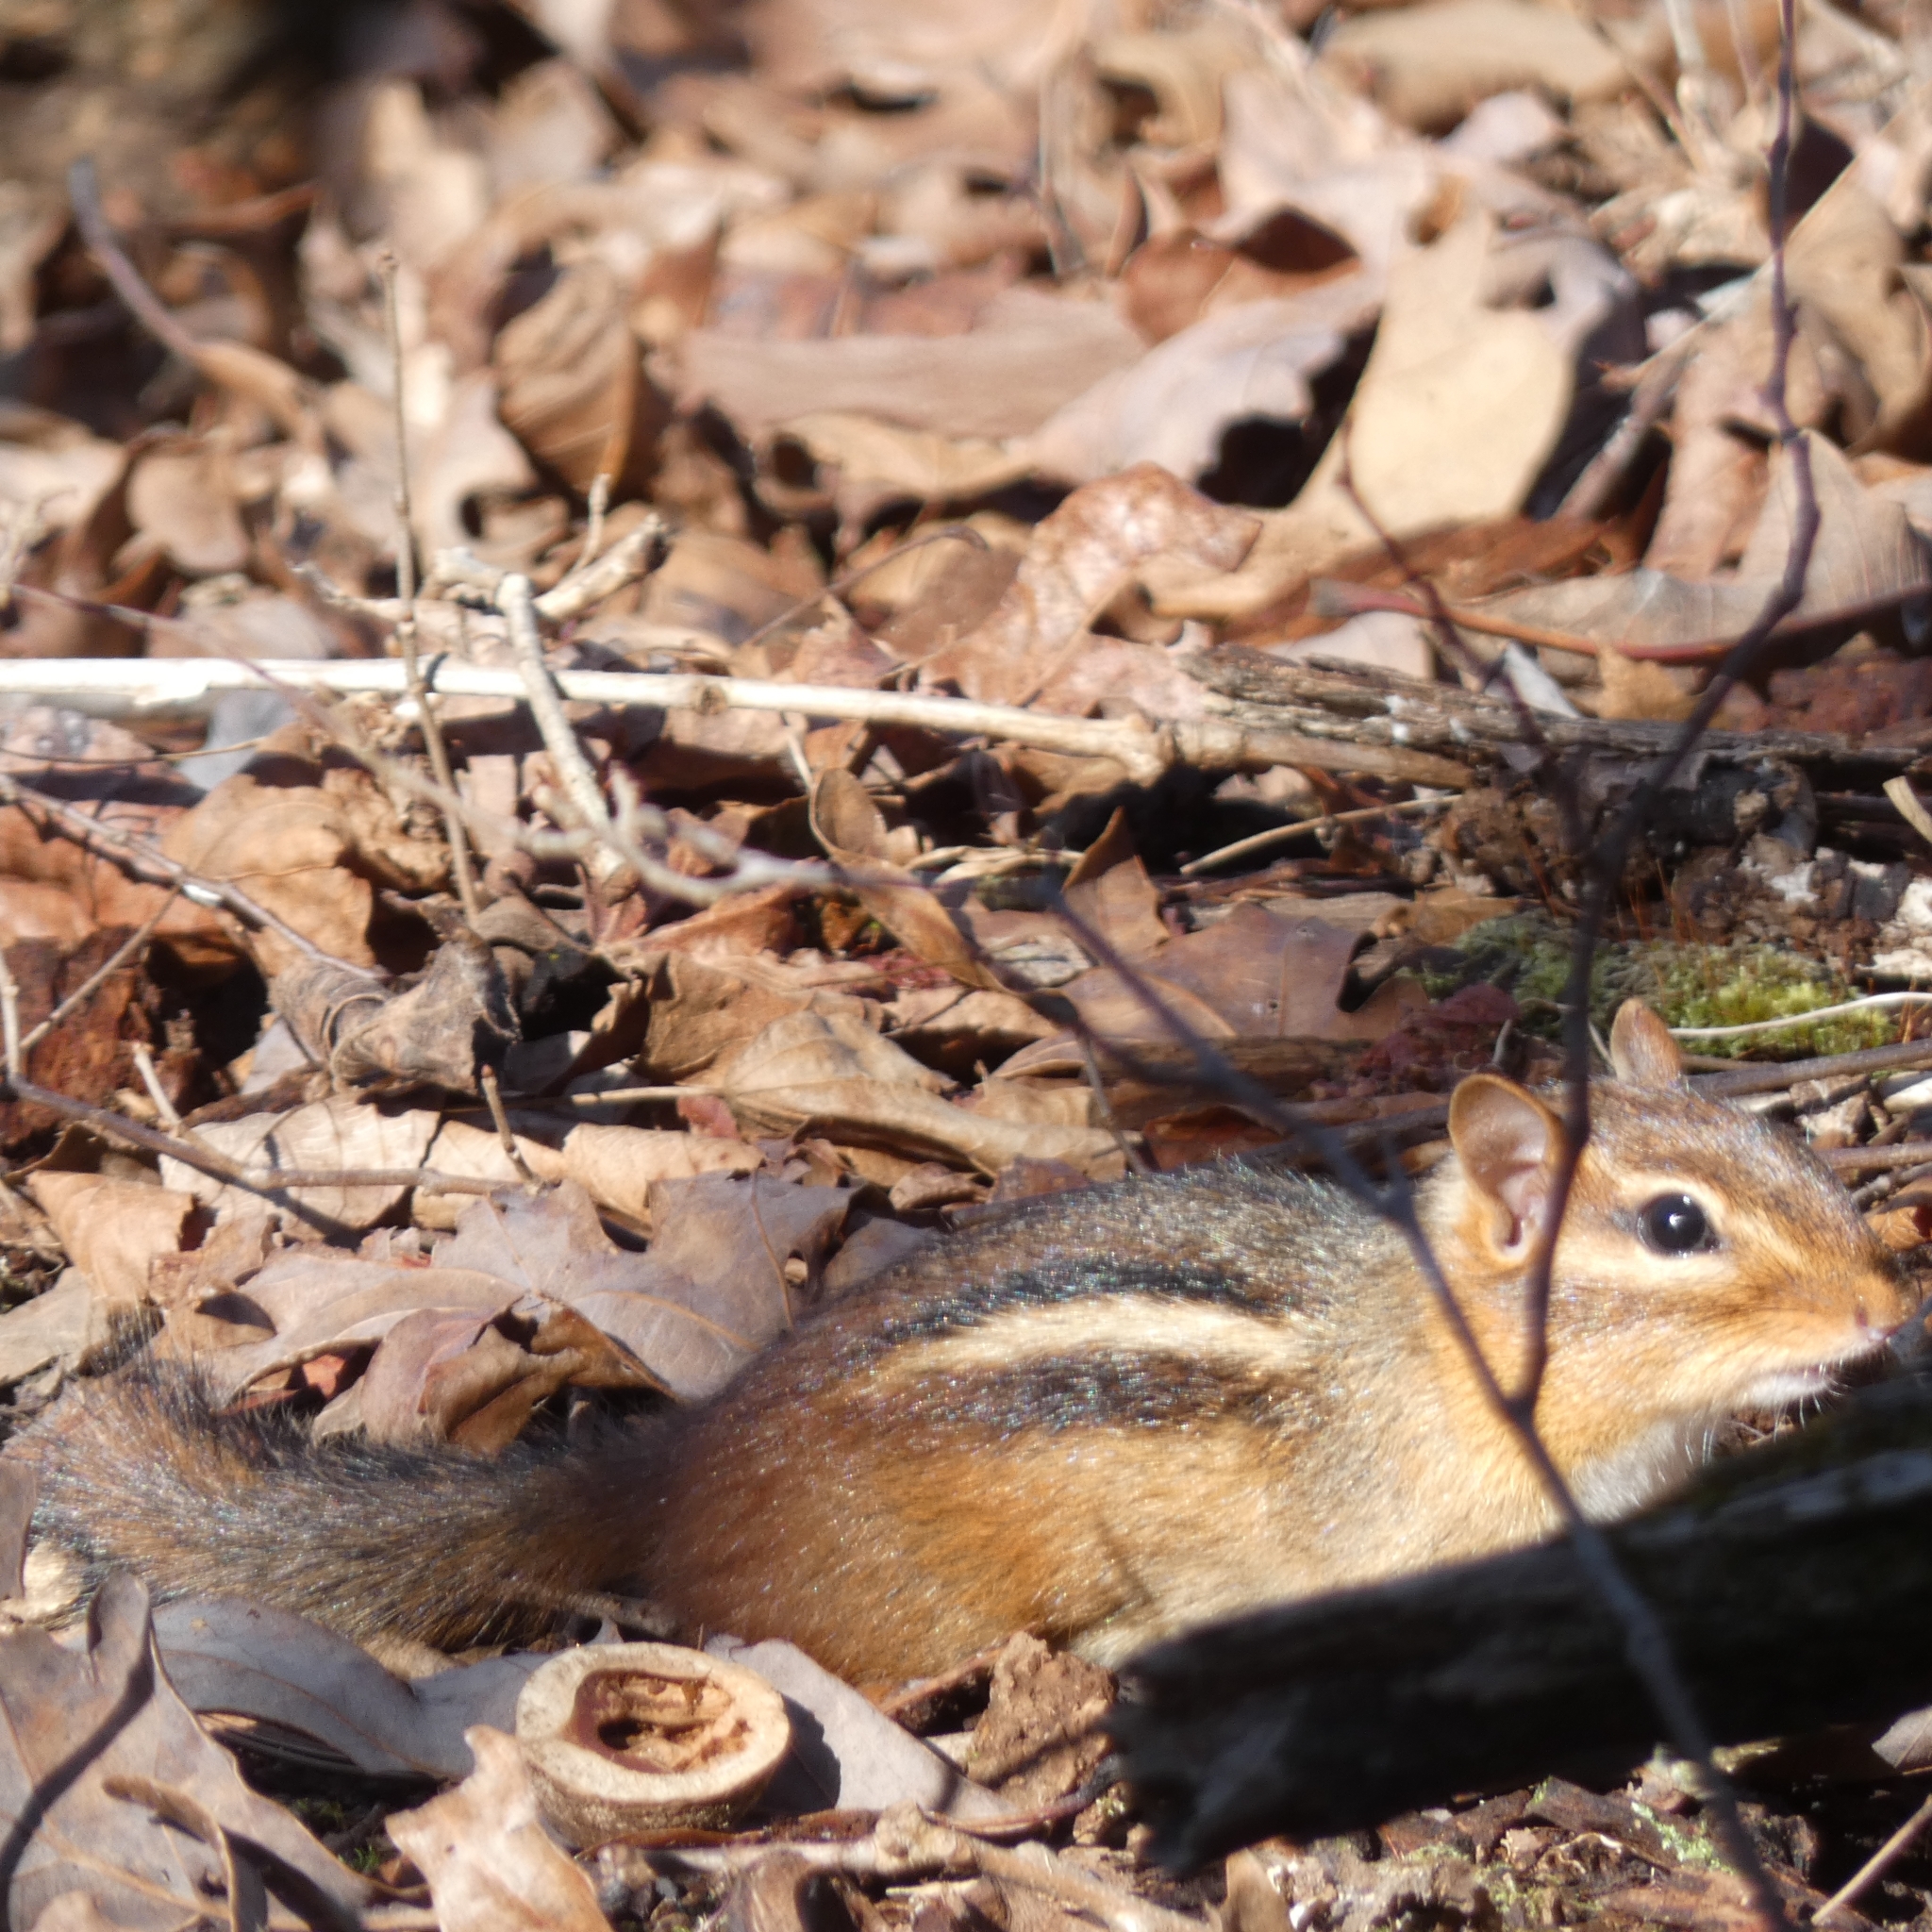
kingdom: Animalia
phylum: Chordata
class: Mammalia
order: Rodentia
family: Sciuridae
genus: Tamias
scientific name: Tamias striatus
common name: Eastern chipmunk
